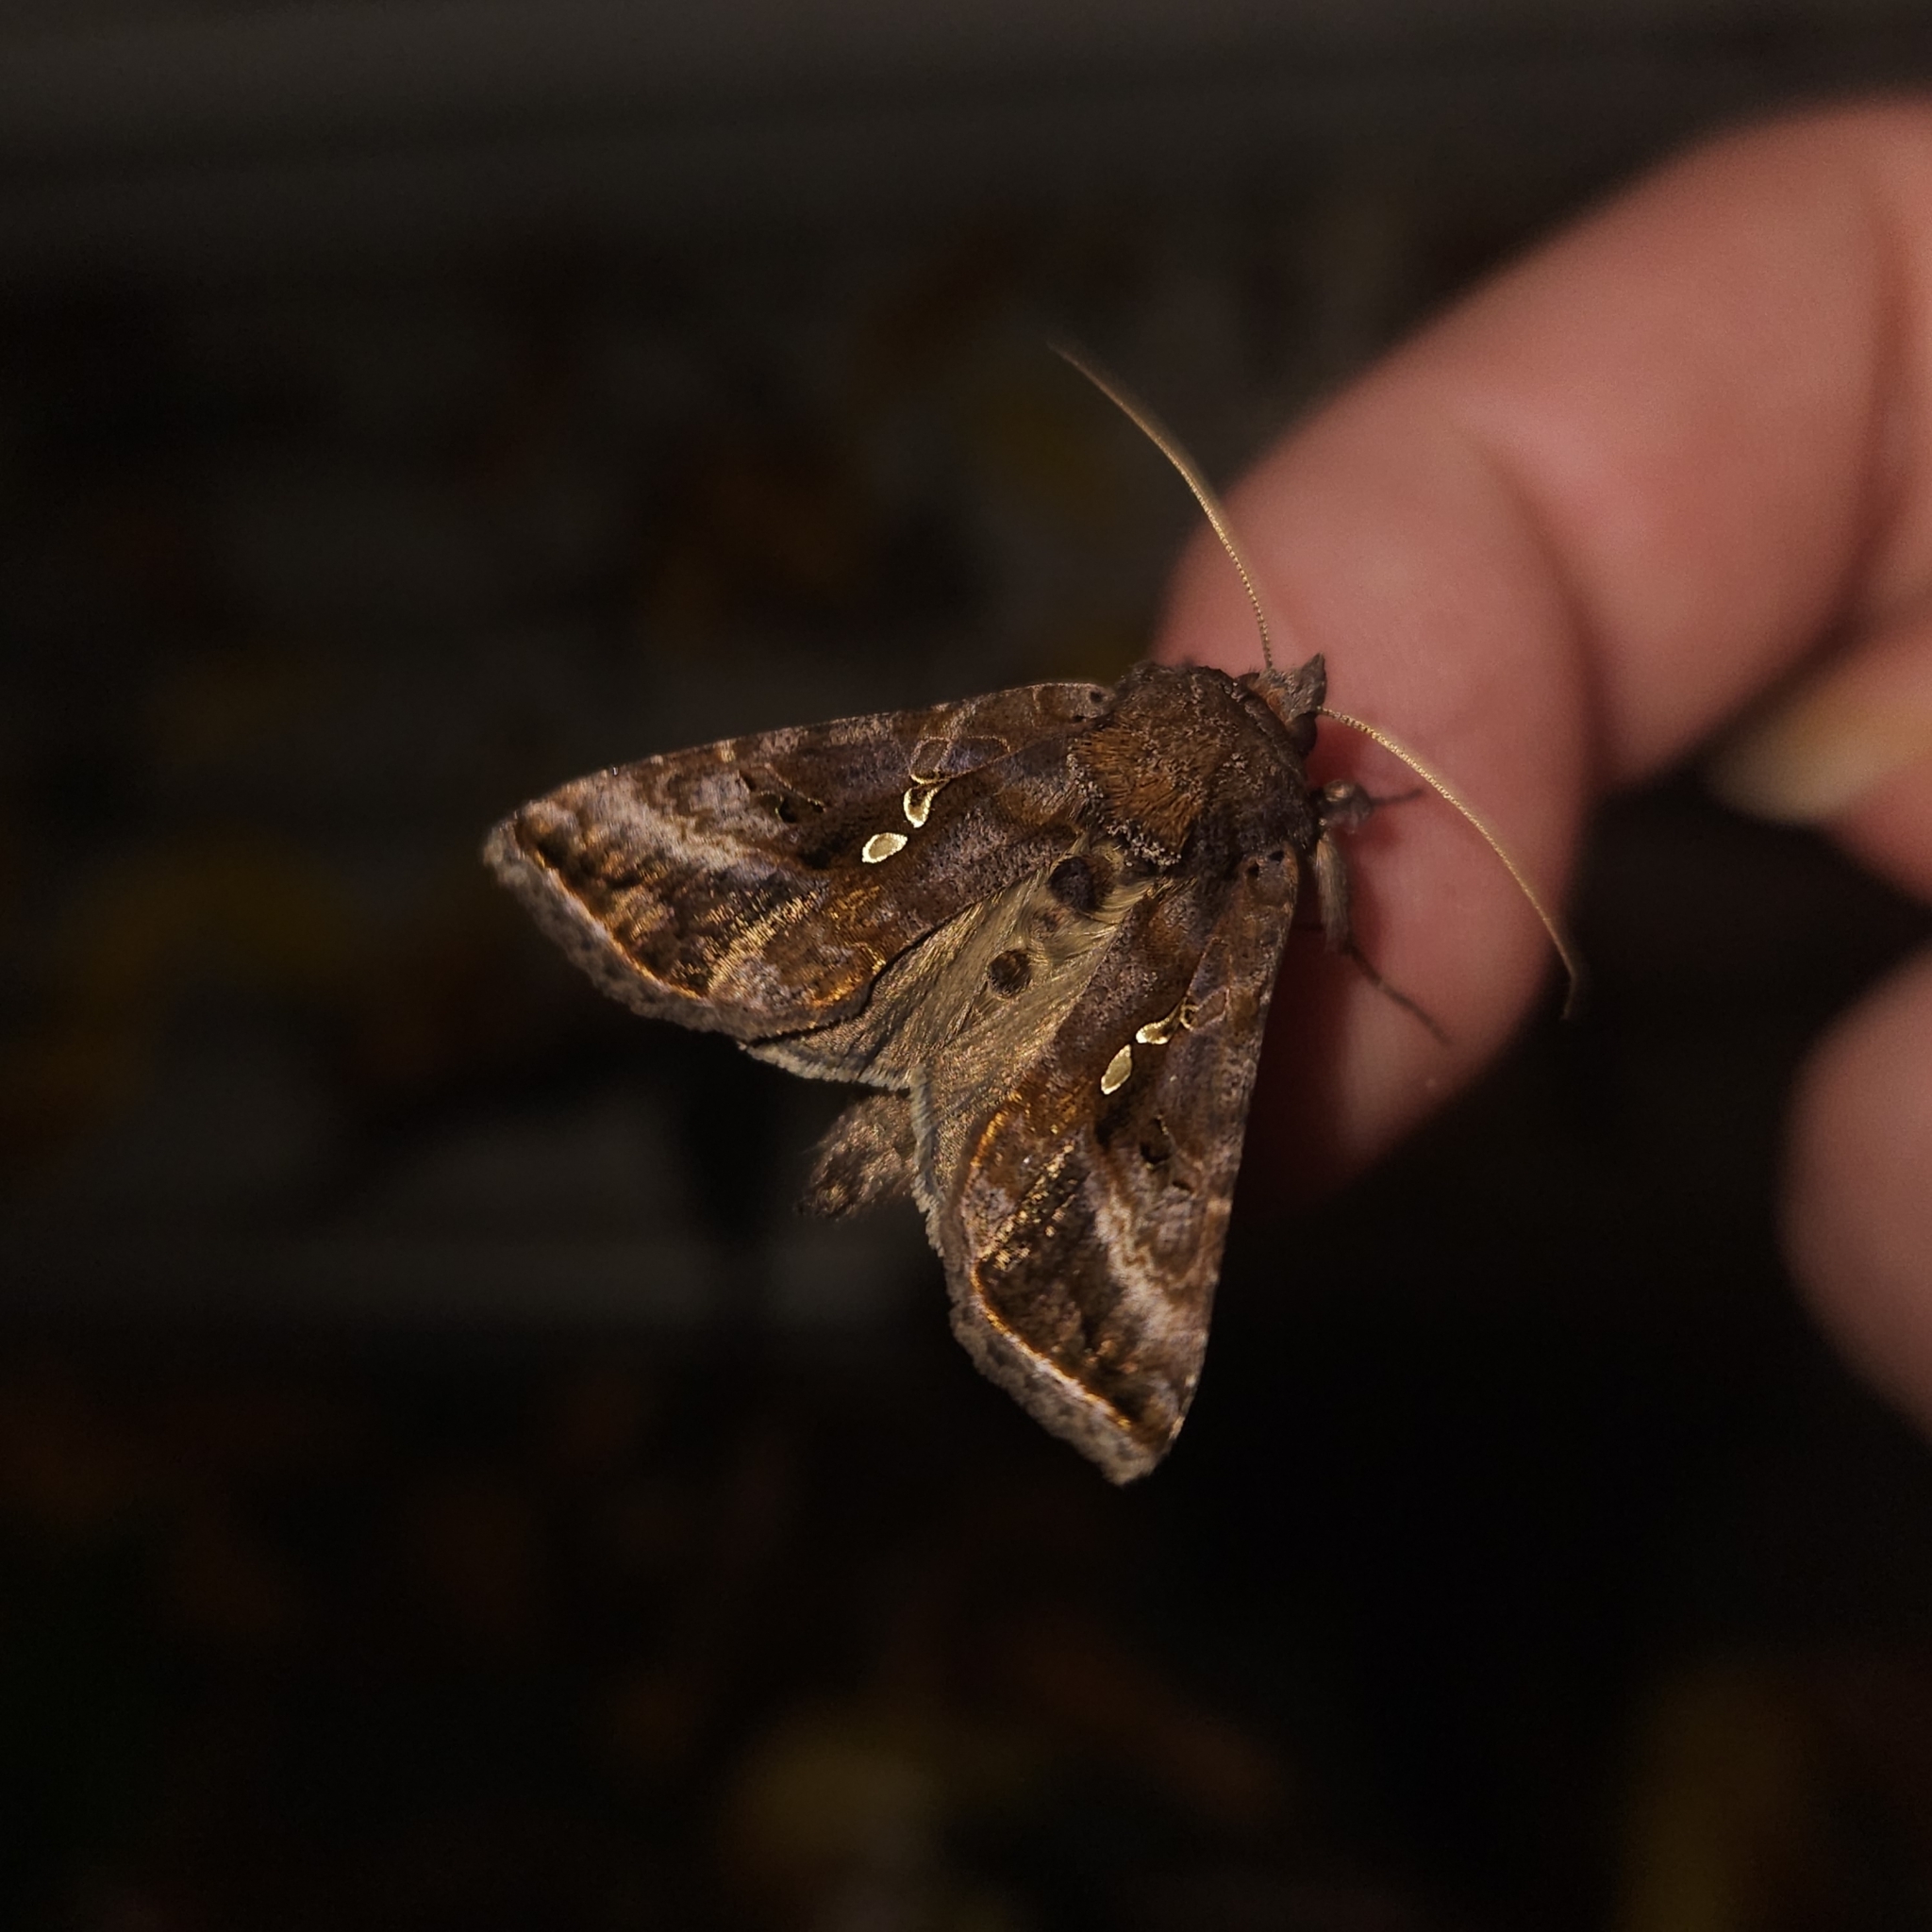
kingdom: Animalia
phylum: Arthropoda
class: Insecta
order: Lepidoptera
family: Noctuidae
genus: Autographa
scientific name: Autographa precationis
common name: Common looper moth
